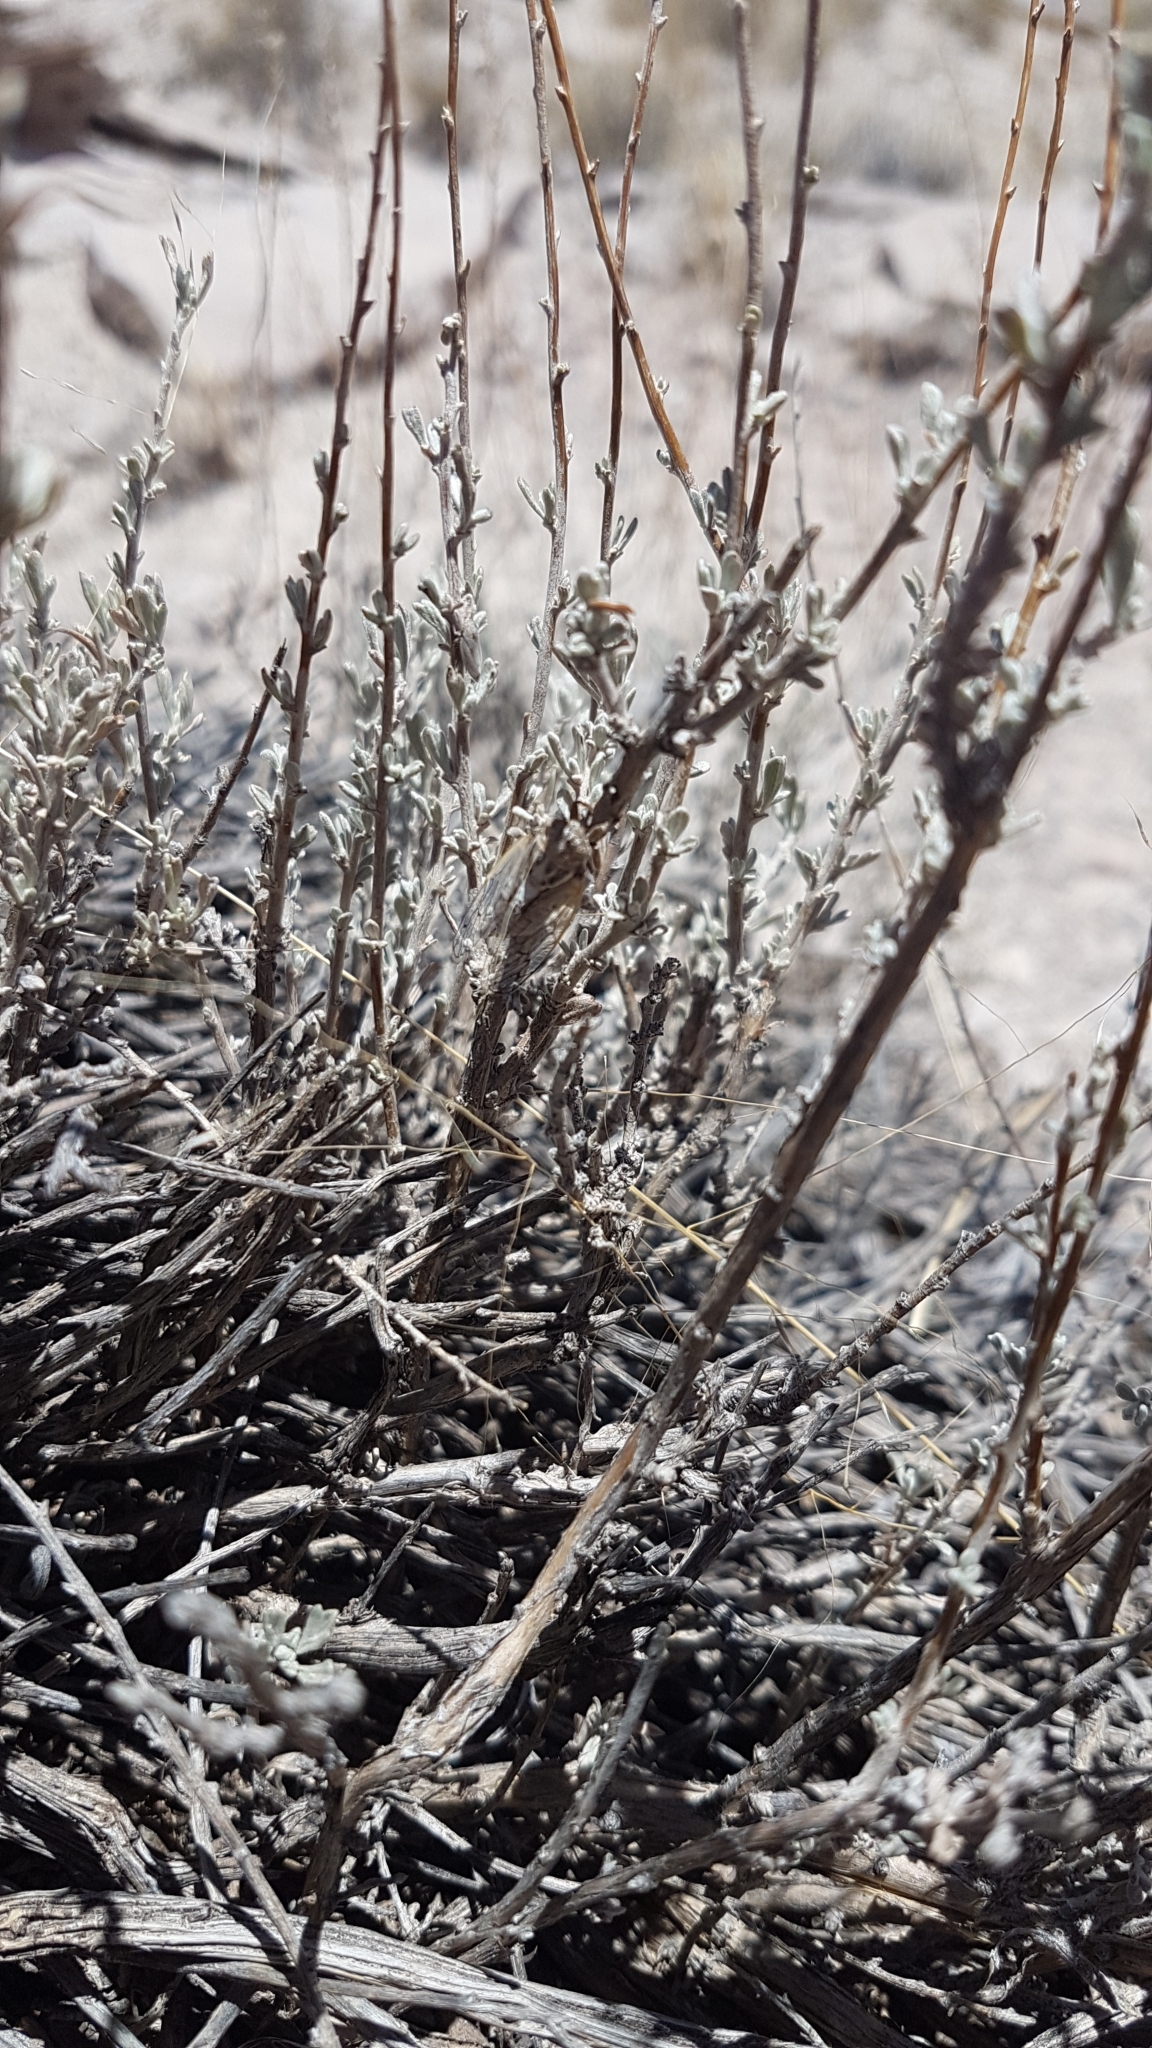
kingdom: Animalia
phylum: Arthropoda
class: Insecta
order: Hemiptera
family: Cicadidae
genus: Beameria
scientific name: Beameria venosa
